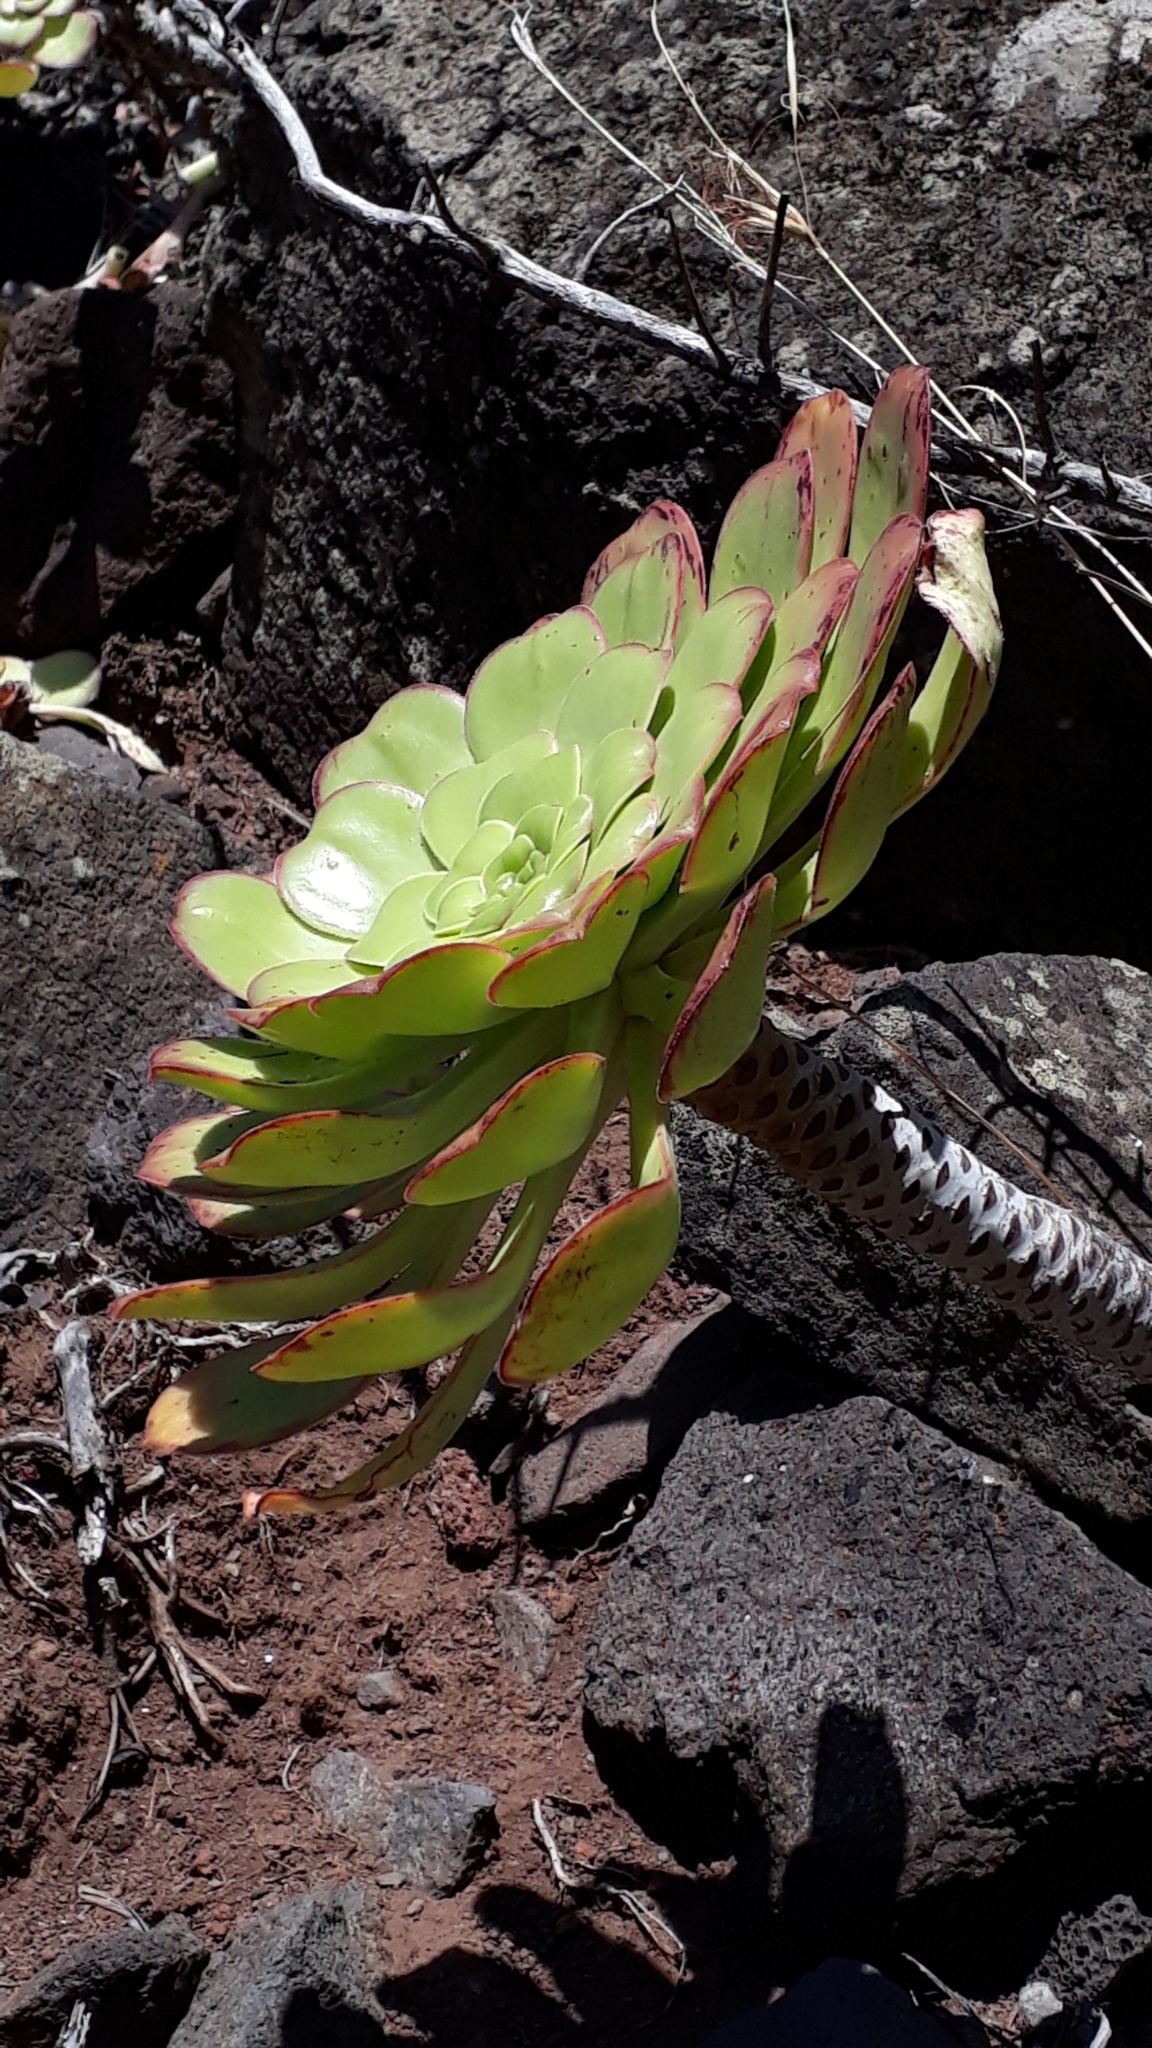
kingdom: Plantae
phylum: Tracheophyta
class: Magnoliopsida
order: Saxifragales
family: Crassulaceae
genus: Aeonium
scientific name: Aeonium urbicum
